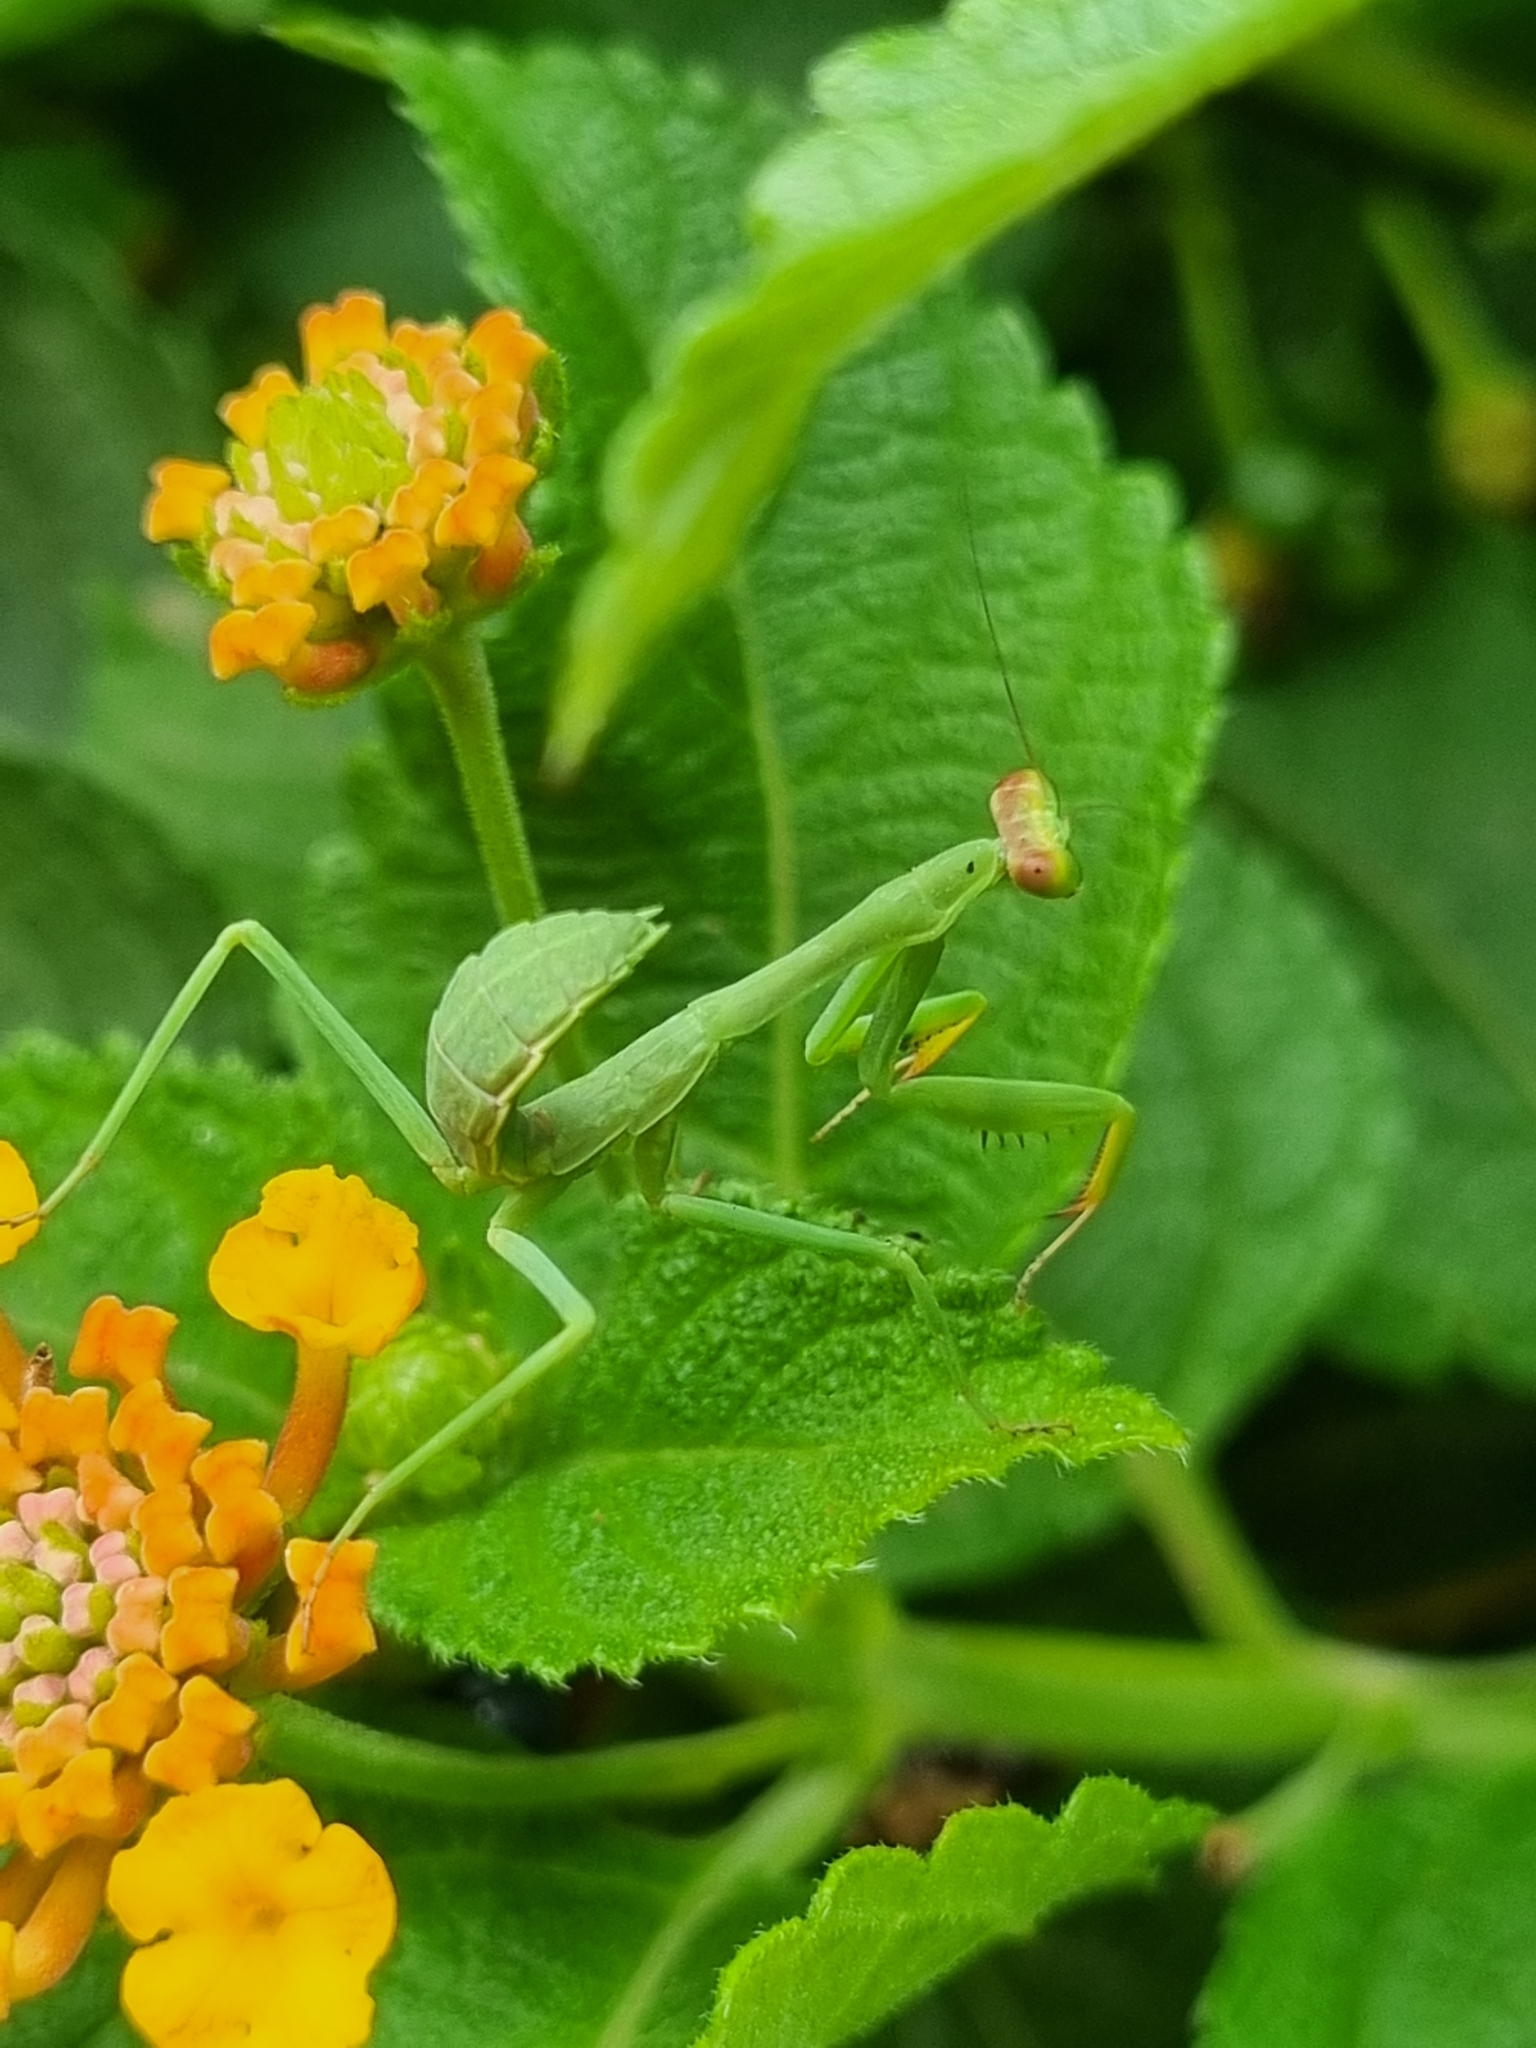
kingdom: Animalia
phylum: Arthropoda
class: Insecta
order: Mantodea
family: Mantidae
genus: Stagmatoptera
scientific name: Stagmatoptera hyaloptera
